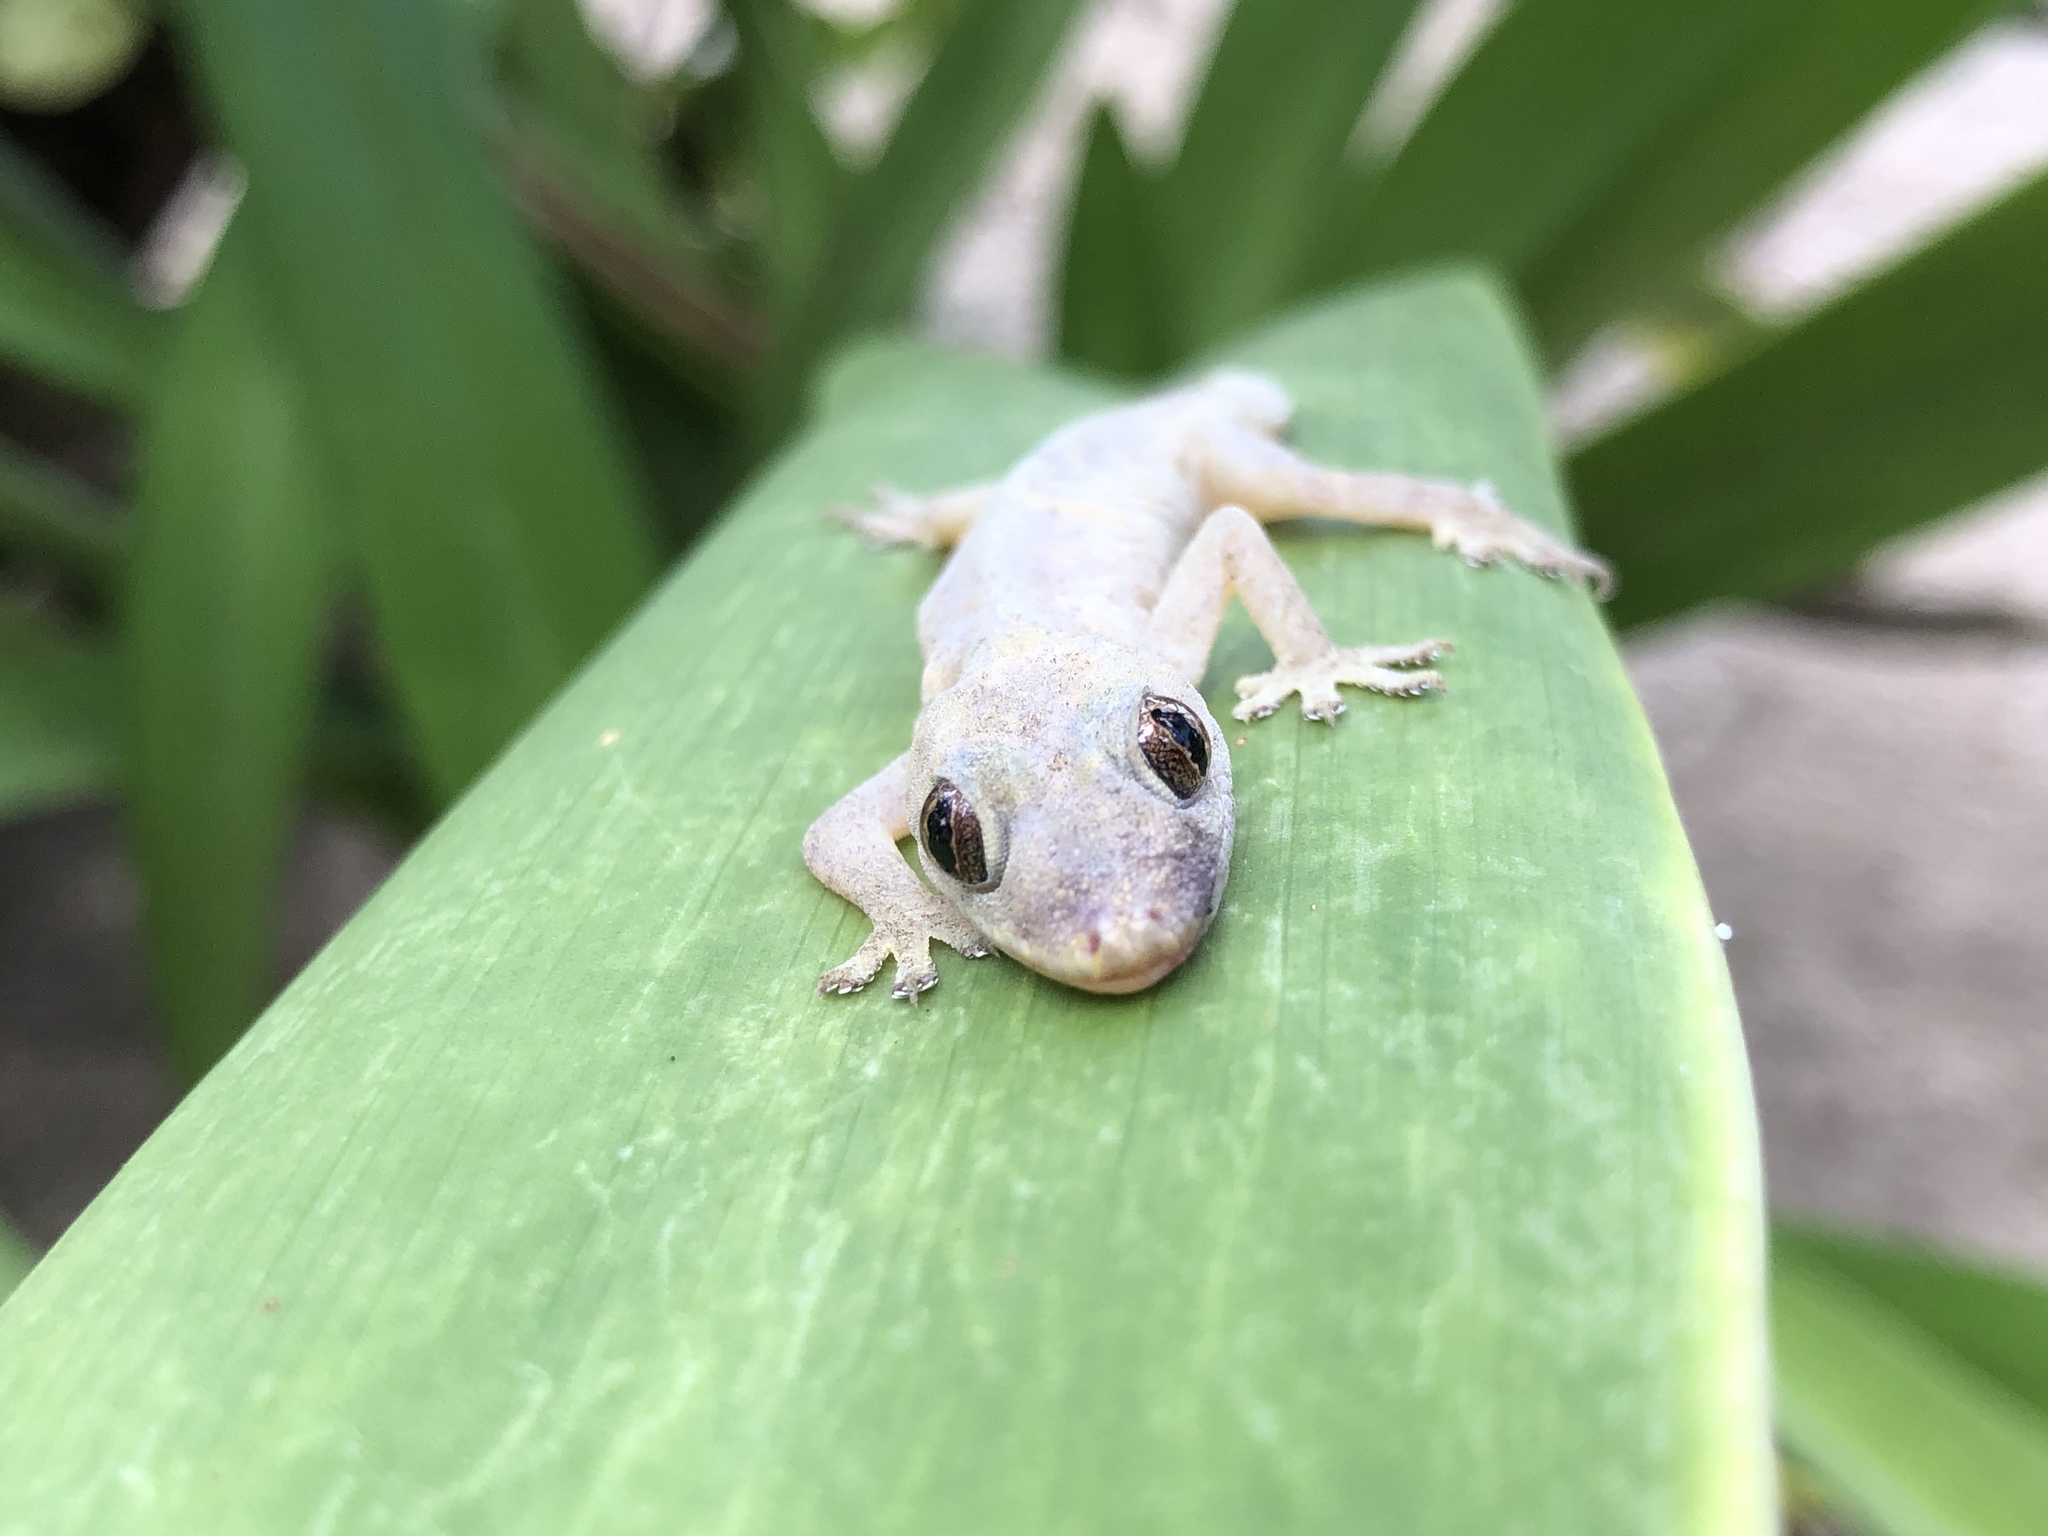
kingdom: Animalia
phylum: Chordata
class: Squamata
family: Gekkonidae
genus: Hemidactylus
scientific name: Hemidactylus frenatus
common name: Common house gecko
